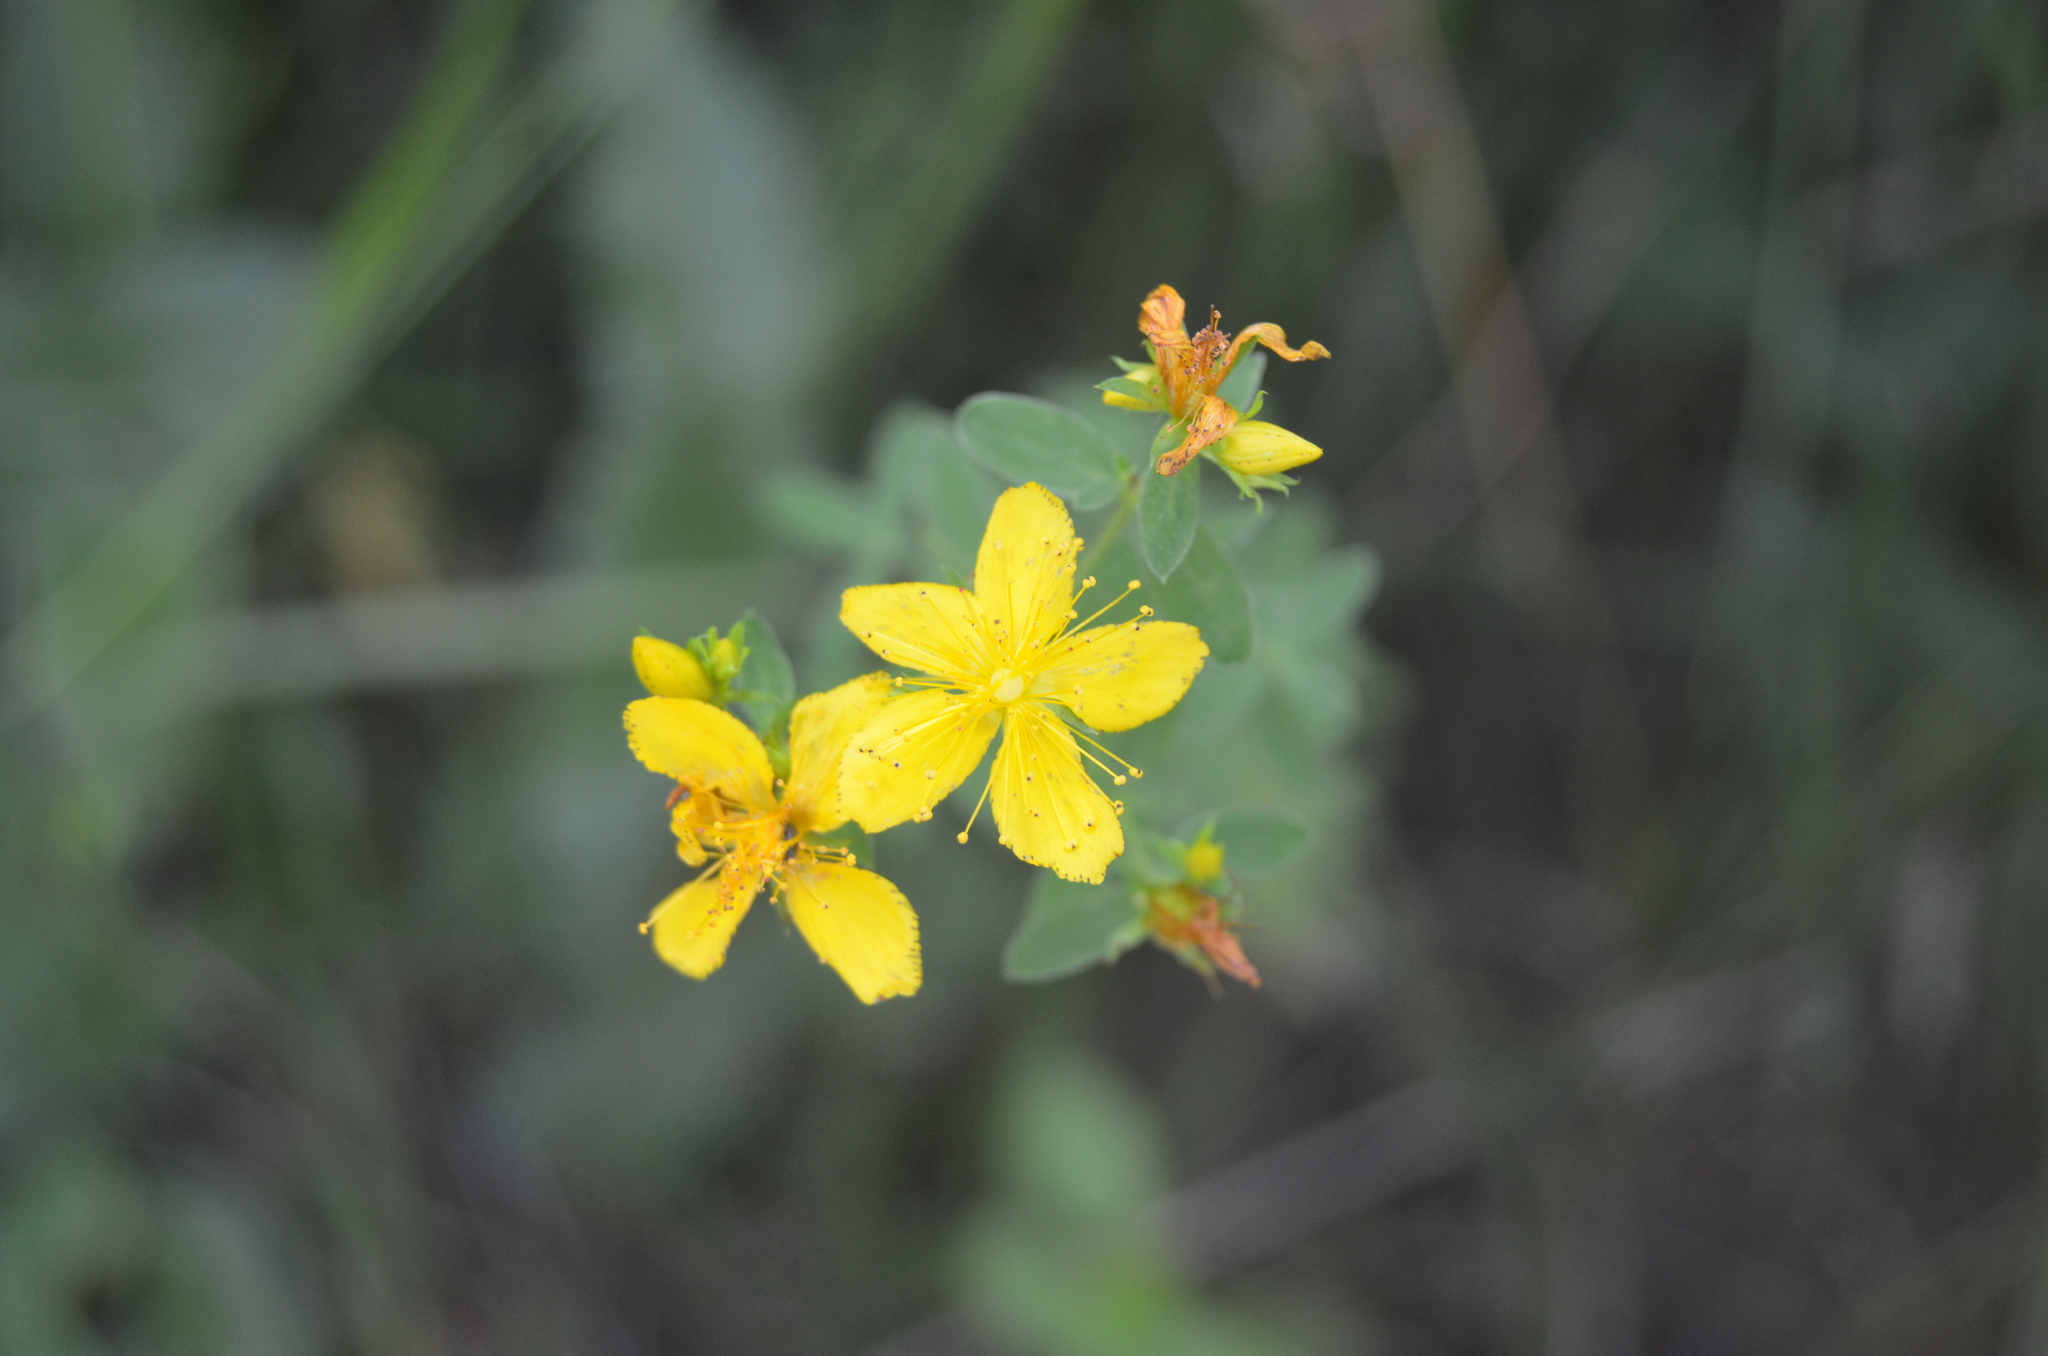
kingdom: Plantae
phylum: Tracheophyta
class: Magnoliopsida
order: Malpighiales
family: Hypericaceae
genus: Hypericum
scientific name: Hypericum perforatum
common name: Common st. johnswort
